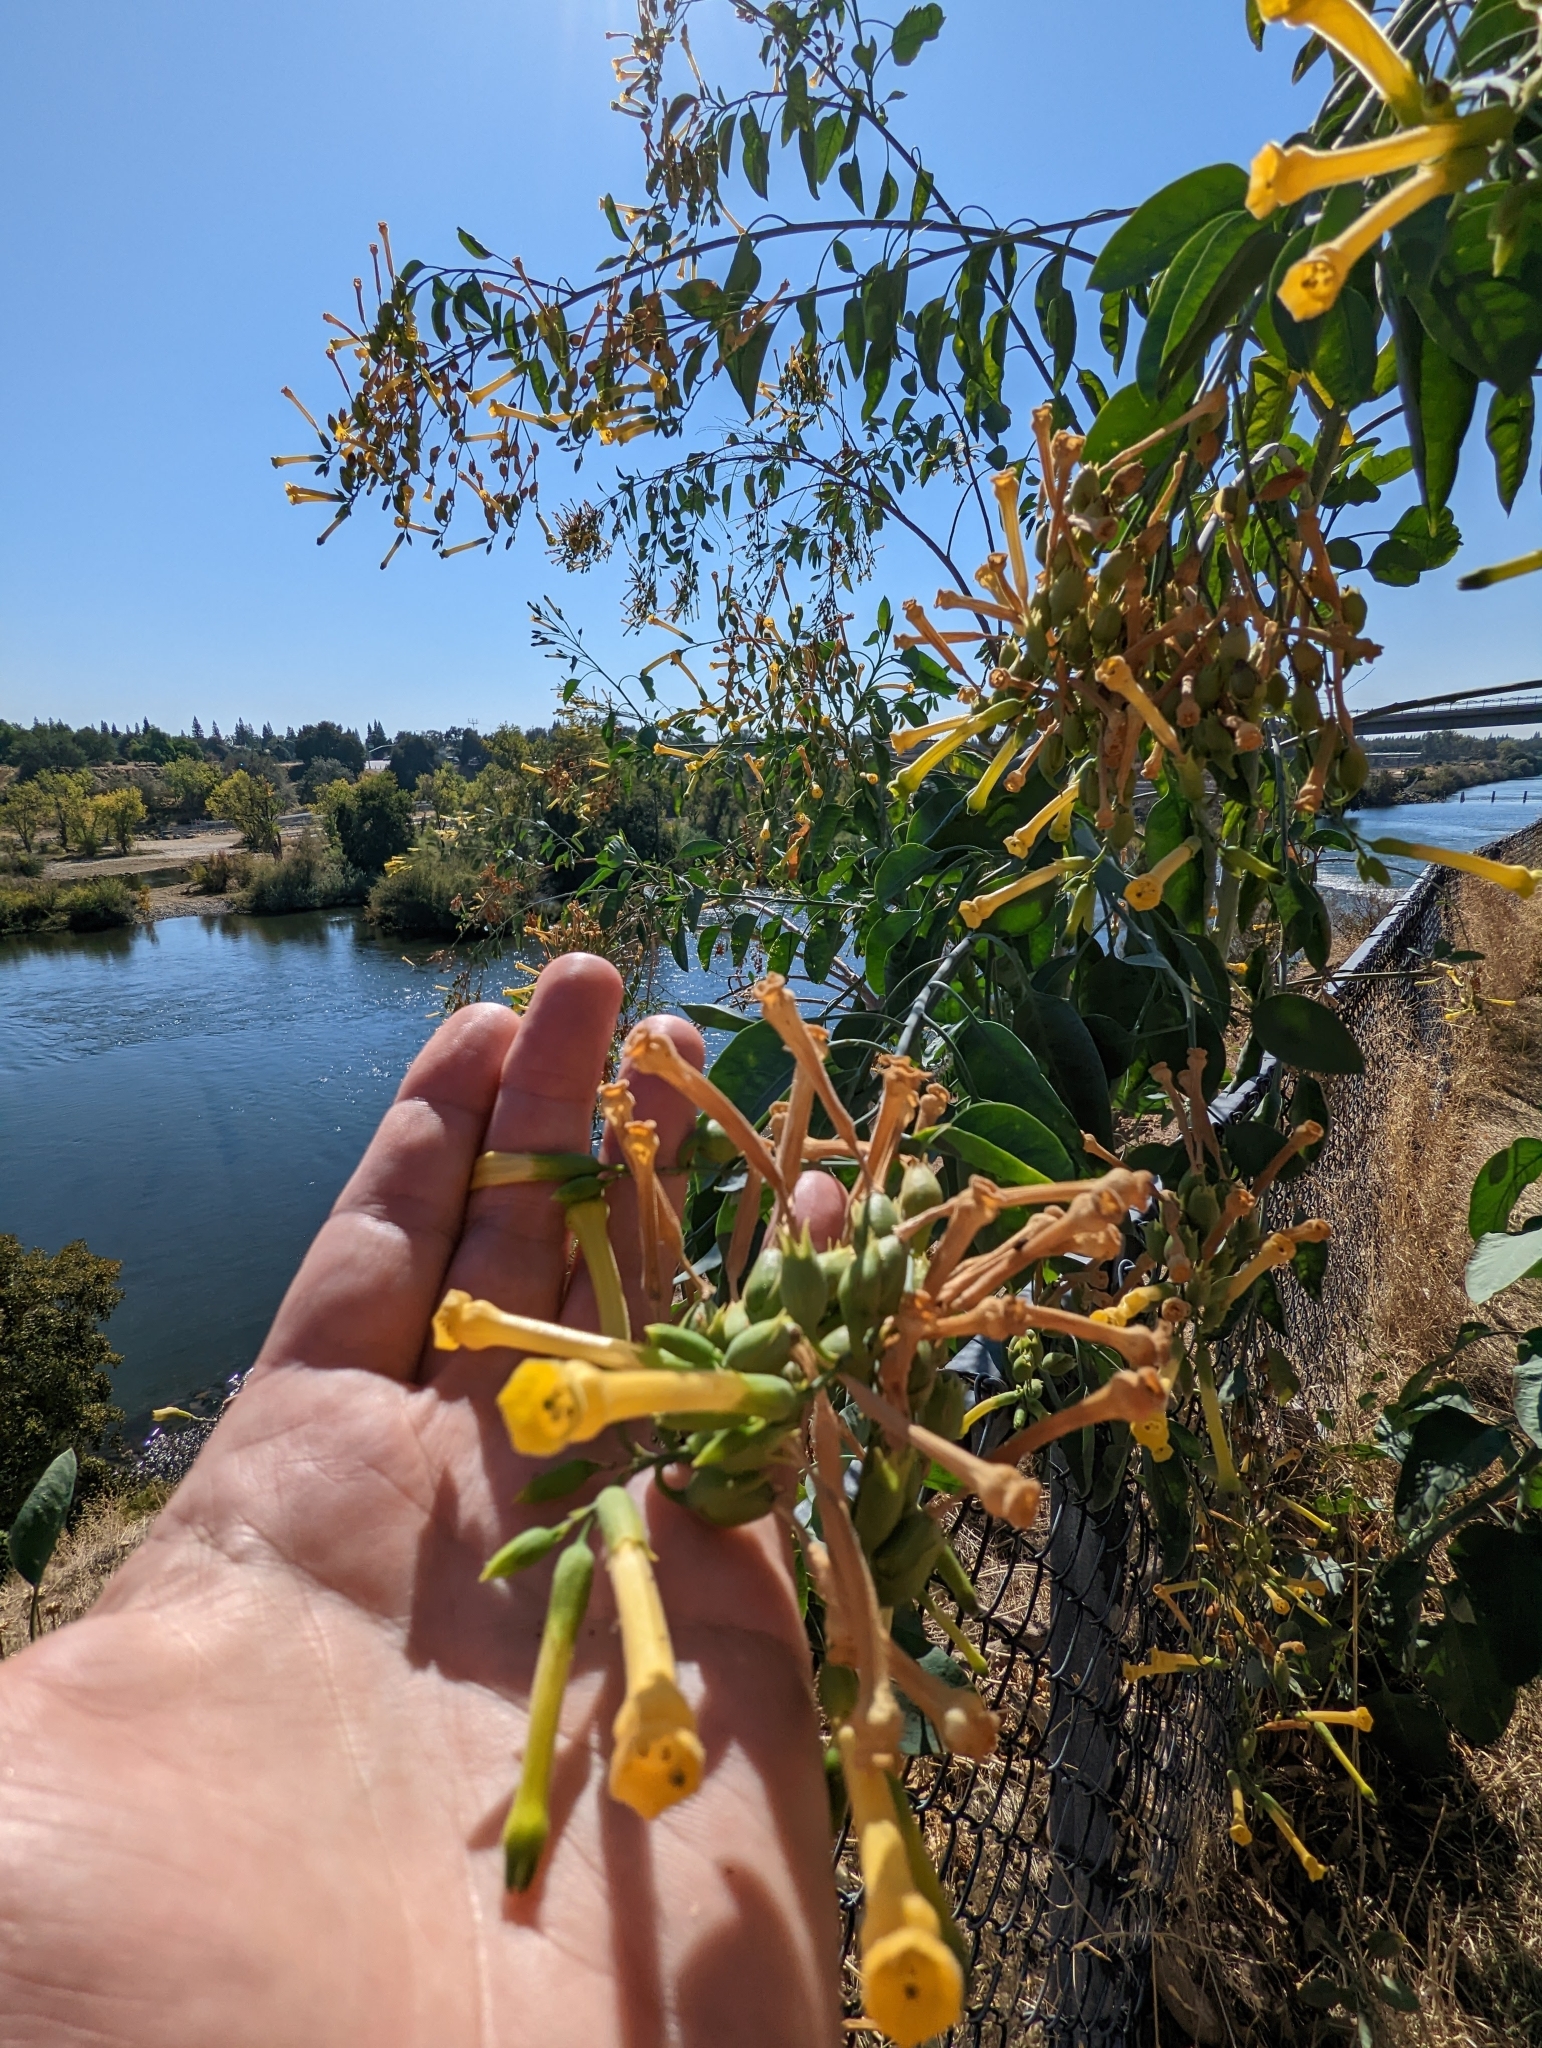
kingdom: Plantae
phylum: Tracheophyta
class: Magnoliopsida
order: Solanales
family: Solanaceae
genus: Nicotiana
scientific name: Nicotiana glauca
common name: Tree tobacco
